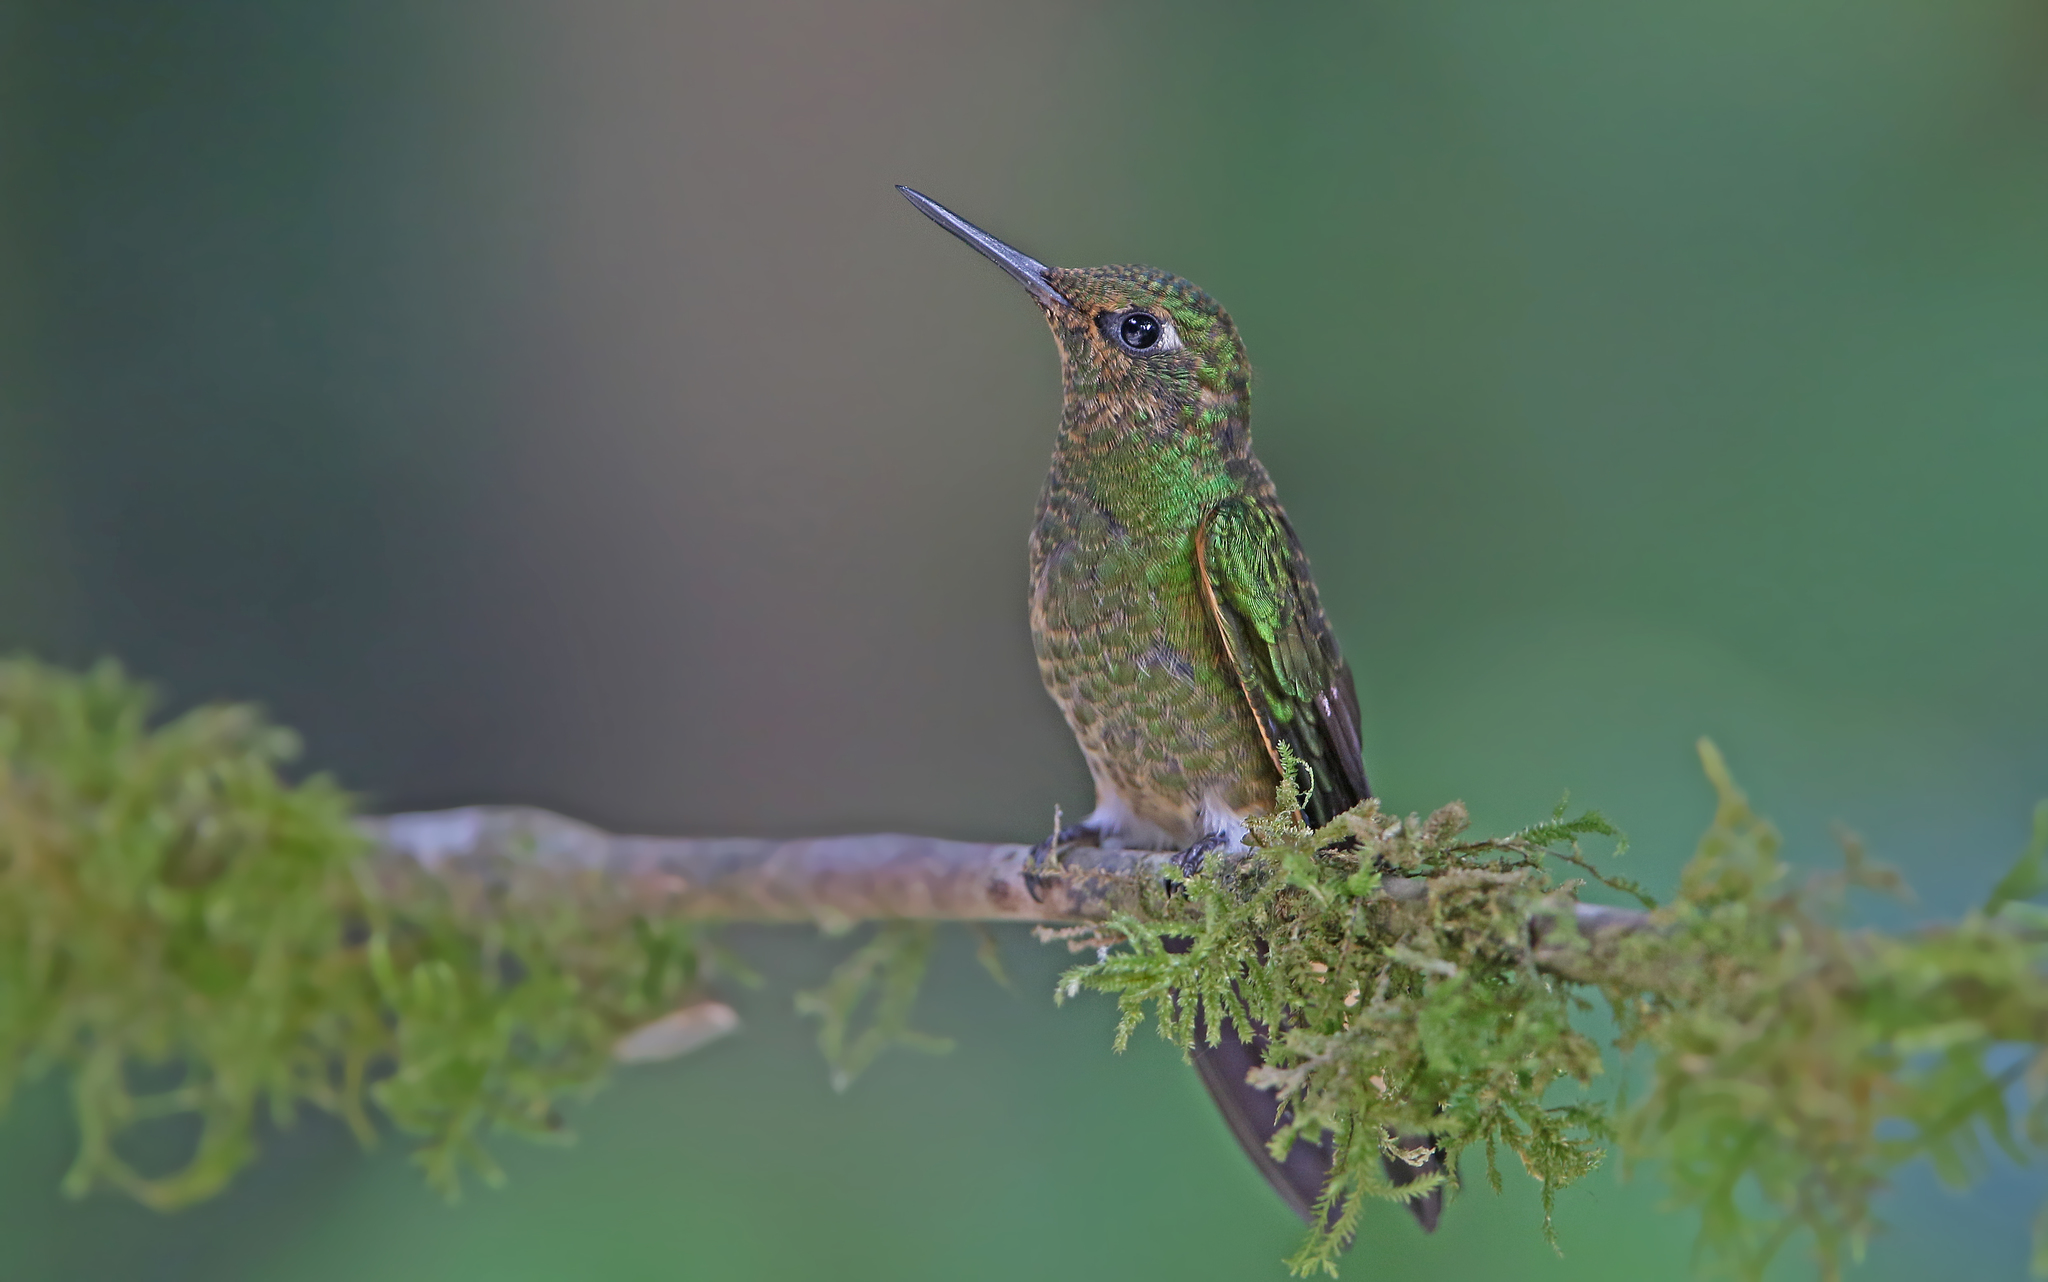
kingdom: Animalia
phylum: Chordata
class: Aves
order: Apodiformes
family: Trochilidae
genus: Boissonneaua
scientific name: Boissonneaua flavescens
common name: Buff-tailed coronet
